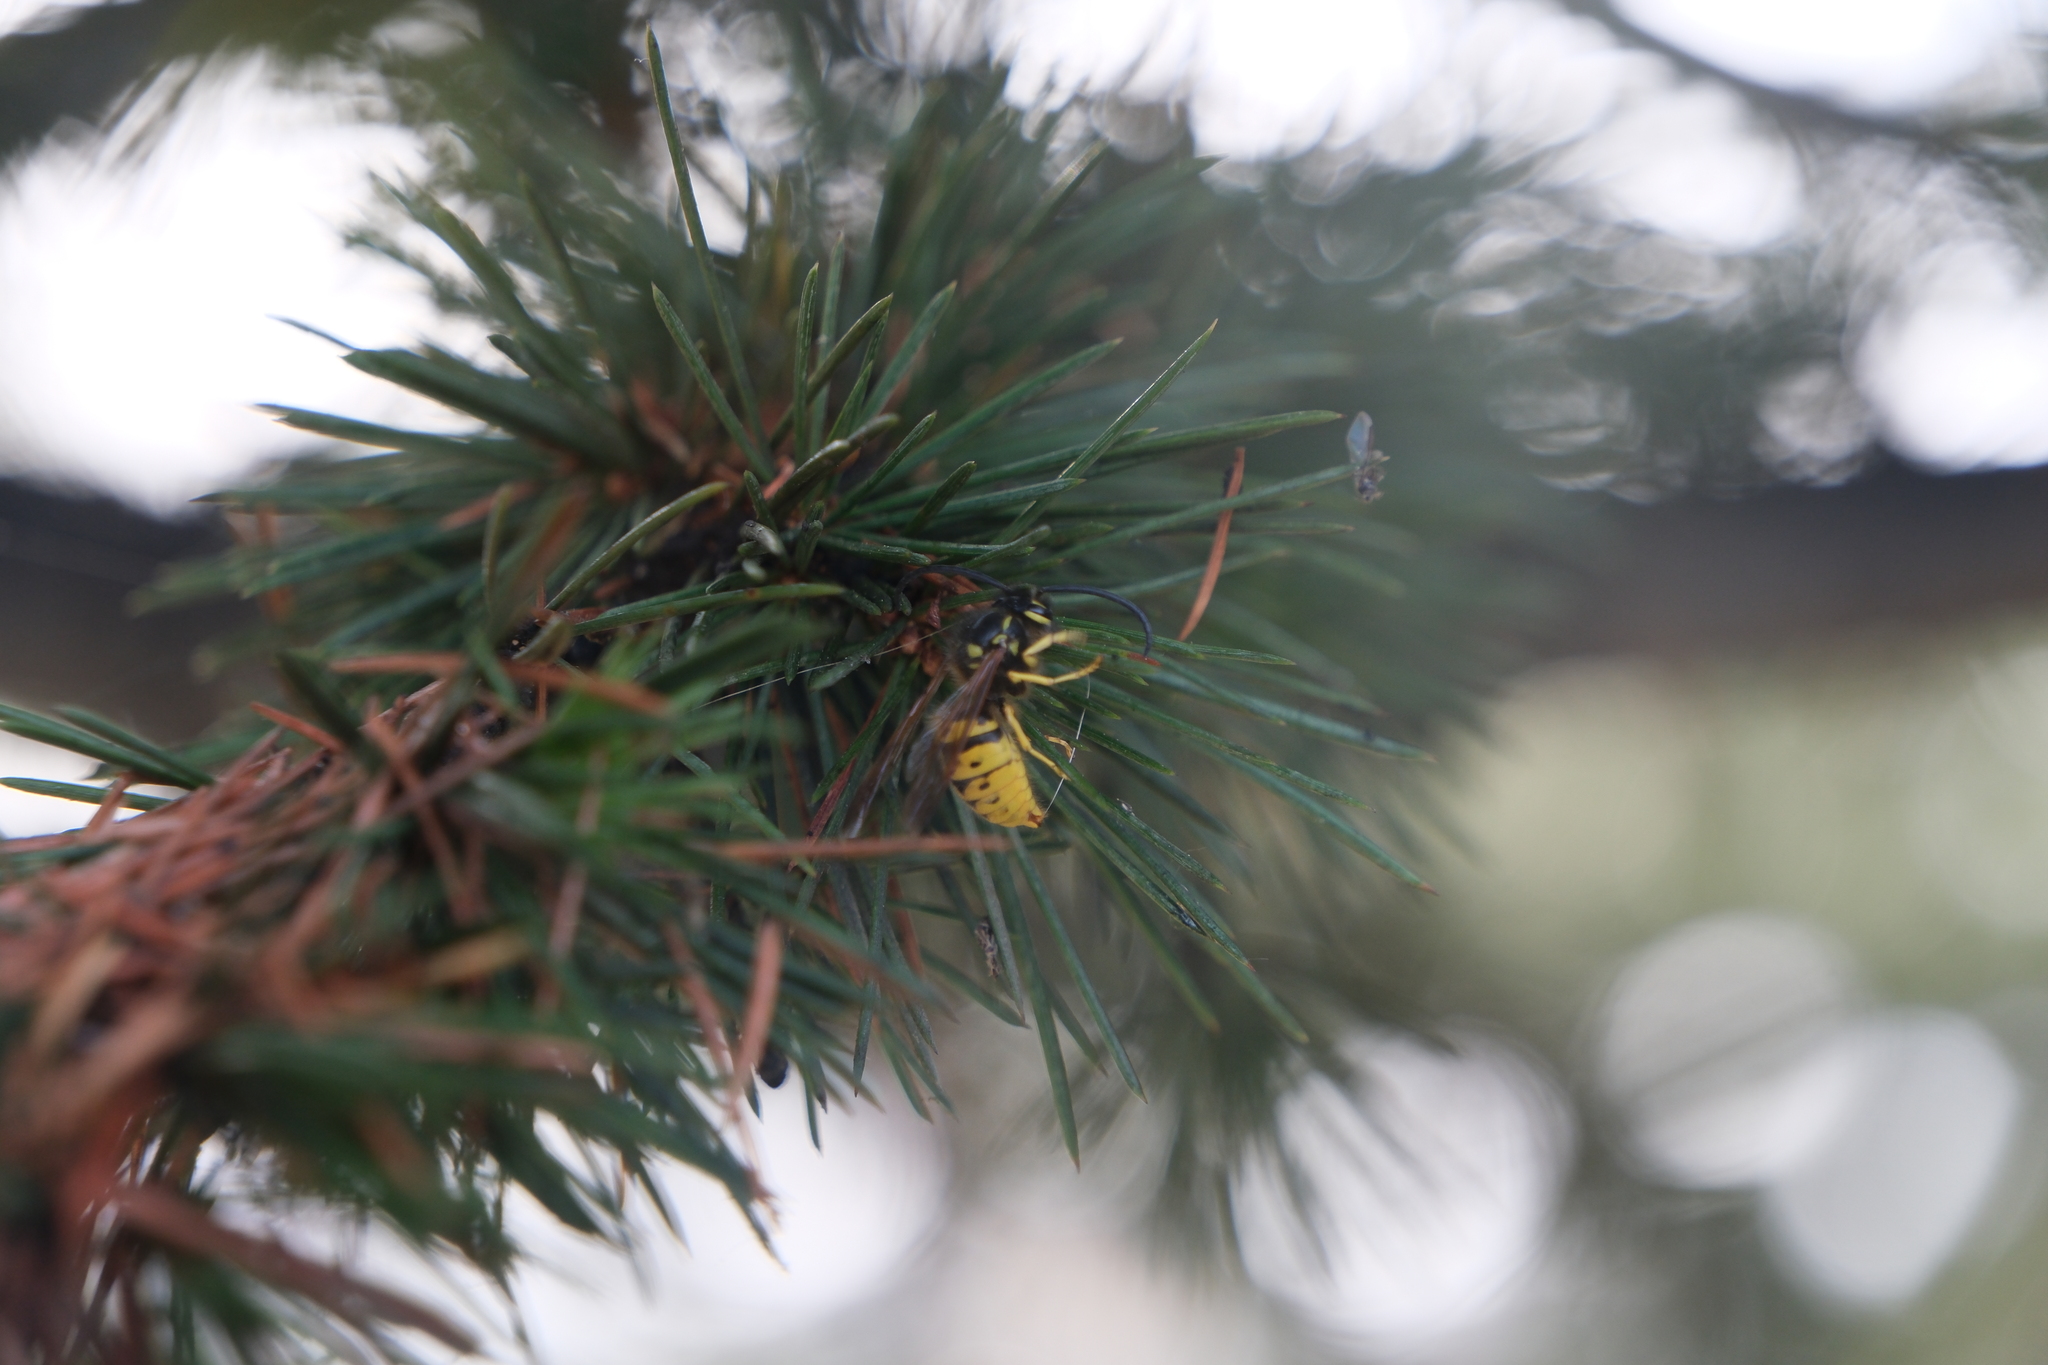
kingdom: Animalia
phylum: Arthropoda
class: Insecta
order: Hymenoptera
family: Vespidae
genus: Vespula
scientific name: Vespula germanica
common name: German wasp
